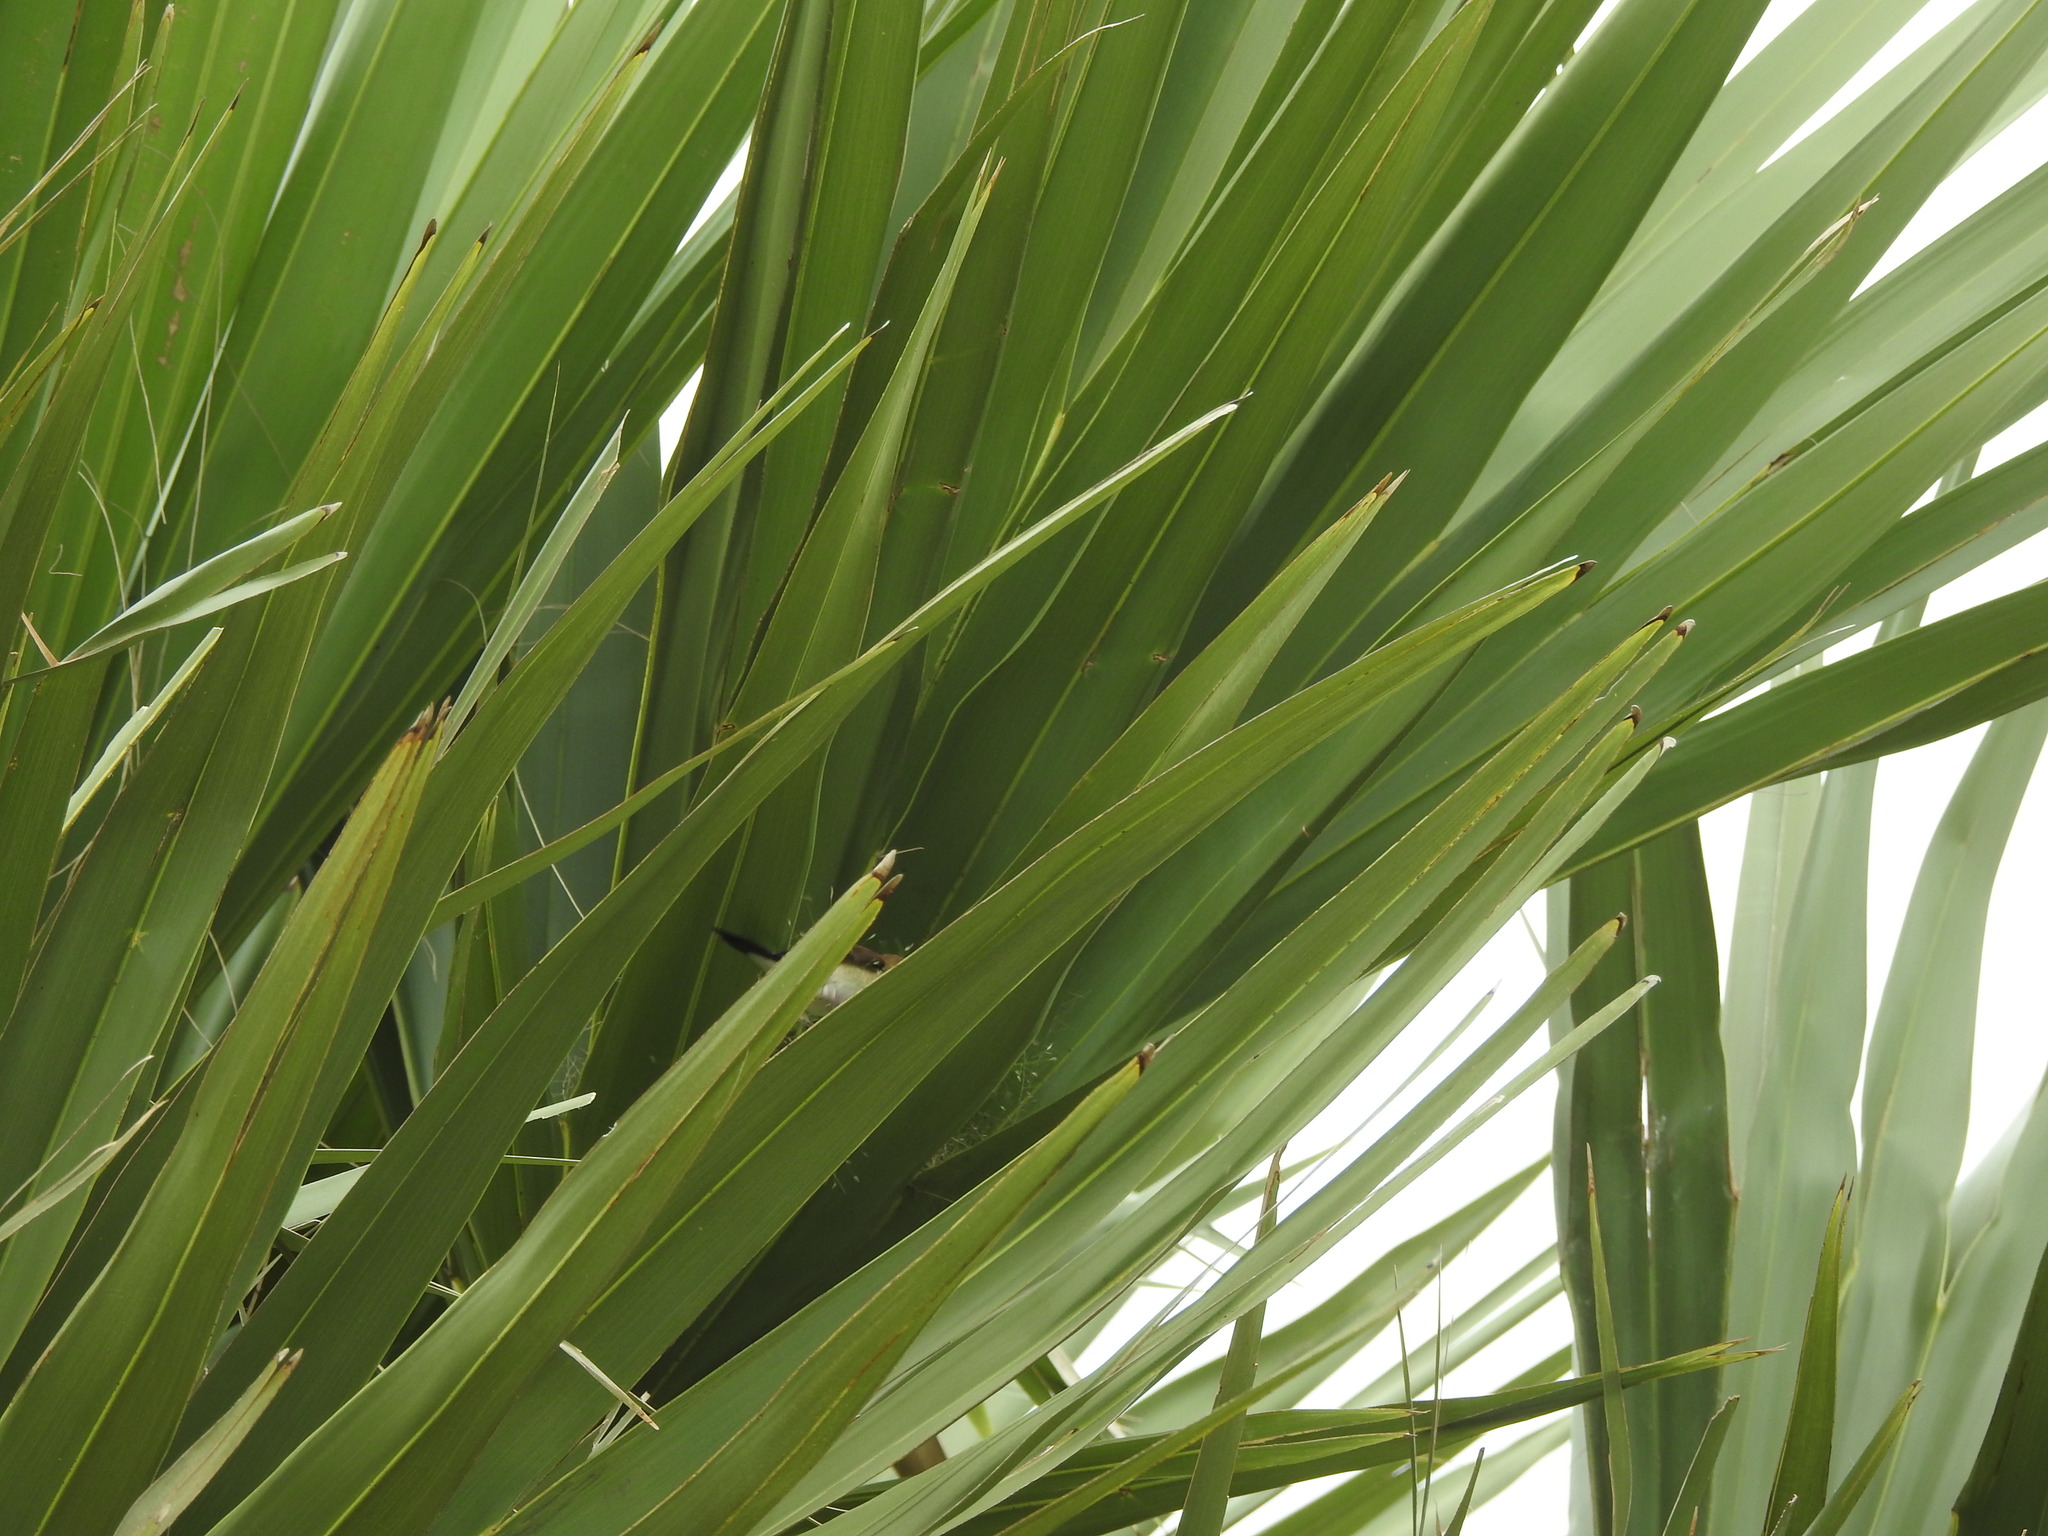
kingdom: Animalia
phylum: Chordata
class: Aves
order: Passeriformes
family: Estrildidae
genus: Euodice
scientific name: Euodice malabarica
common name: Indian silverbill
